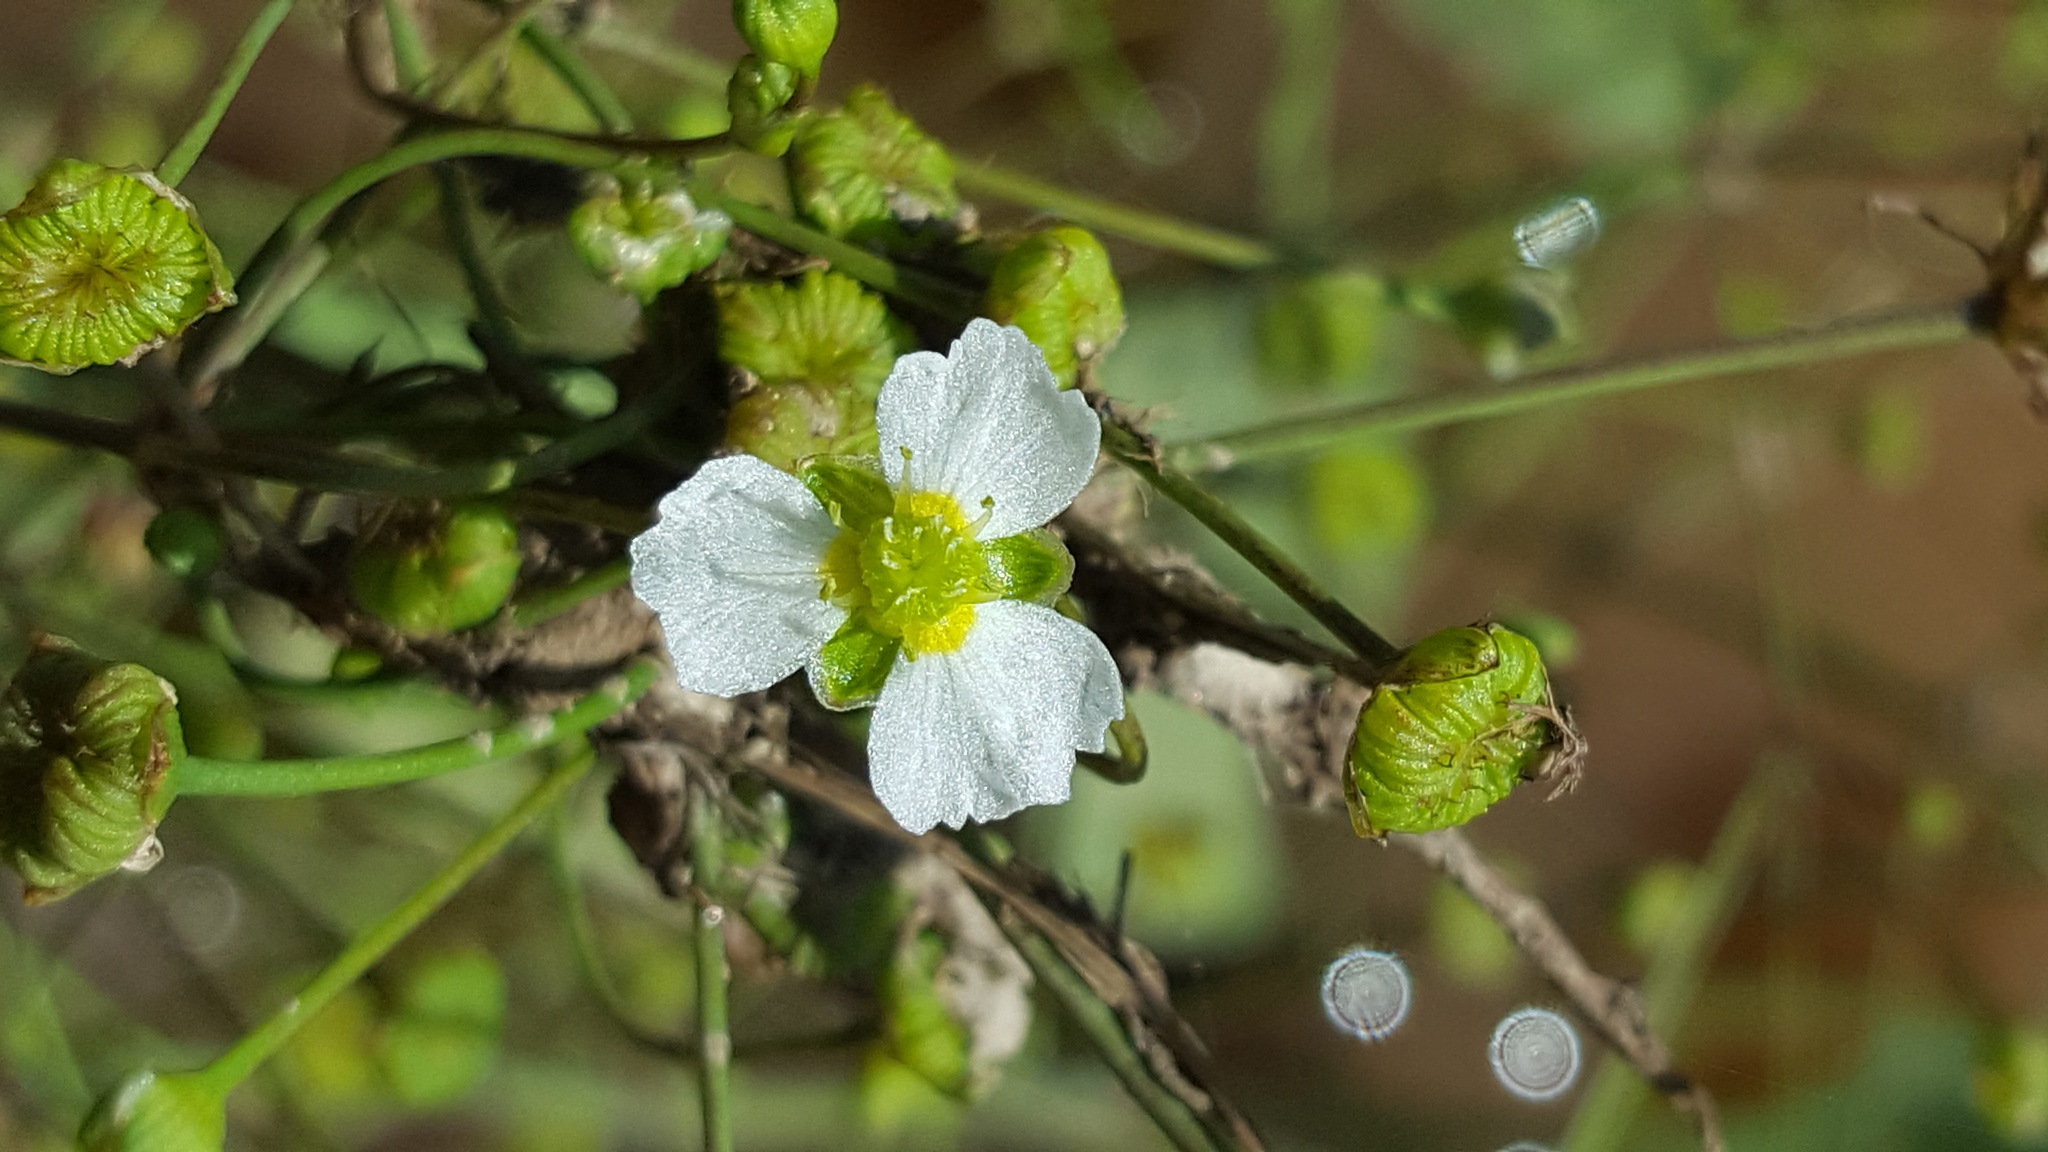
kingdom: Plantae
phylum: Tracheophyta
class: Liliopsida
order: Alismatales
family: Alismataceae
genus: Alisma
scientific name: Alisma triviale
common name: Northern water-plantain
